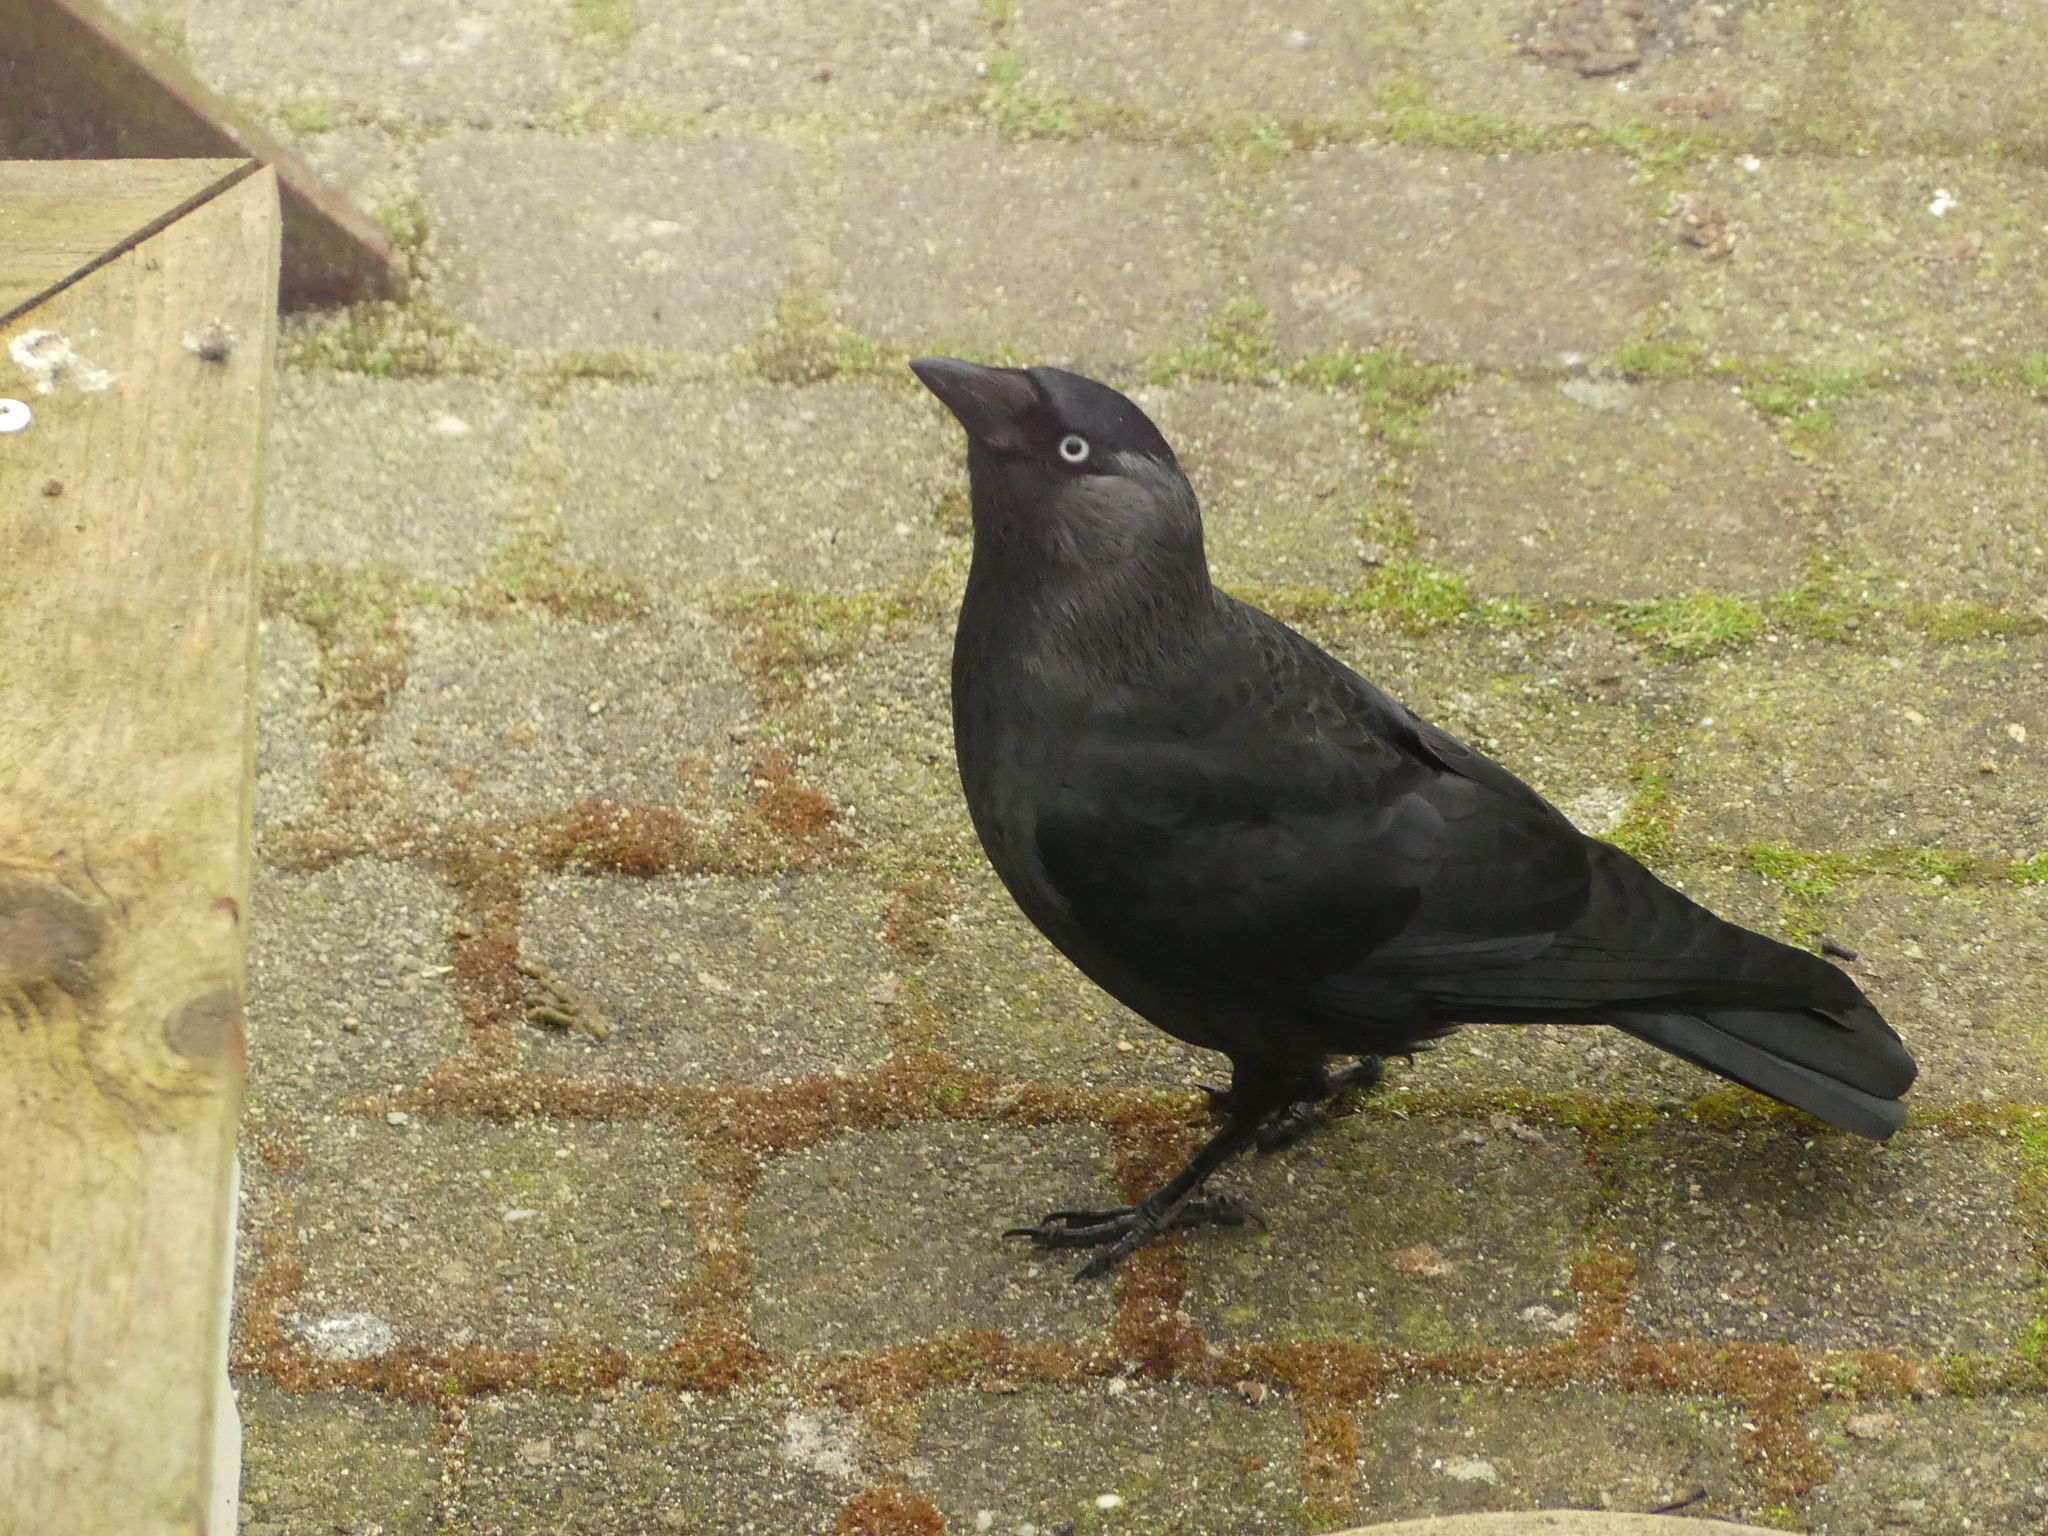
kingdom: Animalia
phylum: Chordata
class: Aves
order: Passeriformes
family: Corvidae
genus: Coloeus
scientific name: Coloeus monedula
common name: Western jackdaw
